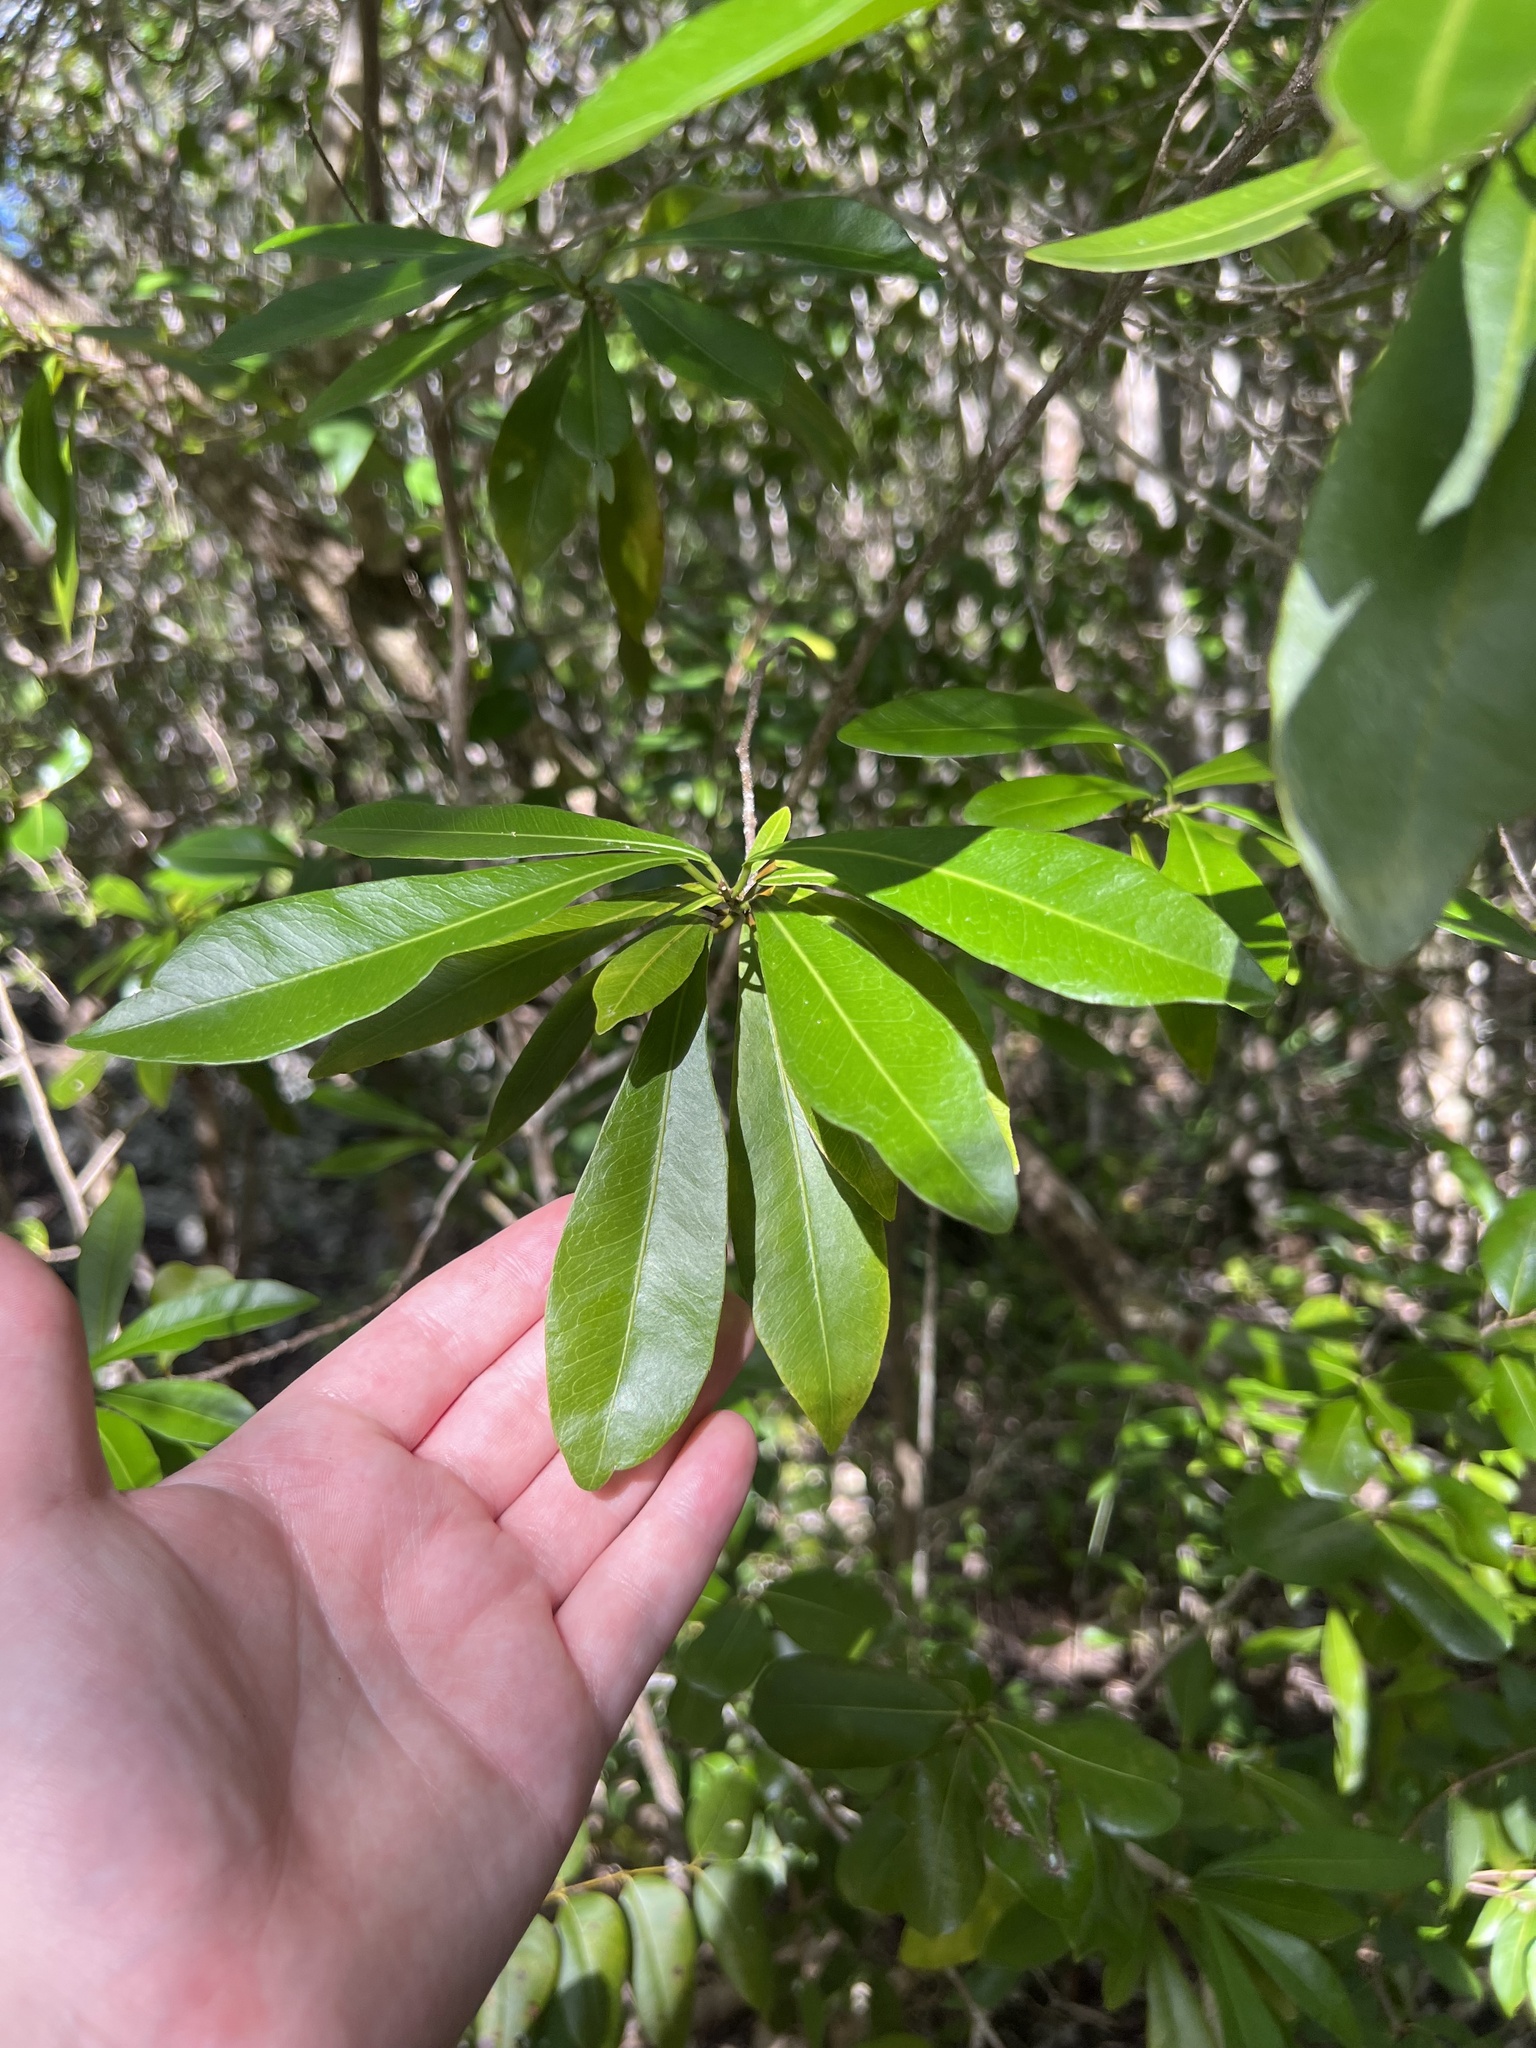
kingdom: Plantae
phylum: Tracheophyta
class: Magnoliopsida
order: Malpighiales
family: Euphorbiaceae
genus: Gymnanthes
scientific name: Gymnanthes lucida
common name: Oysterwood
